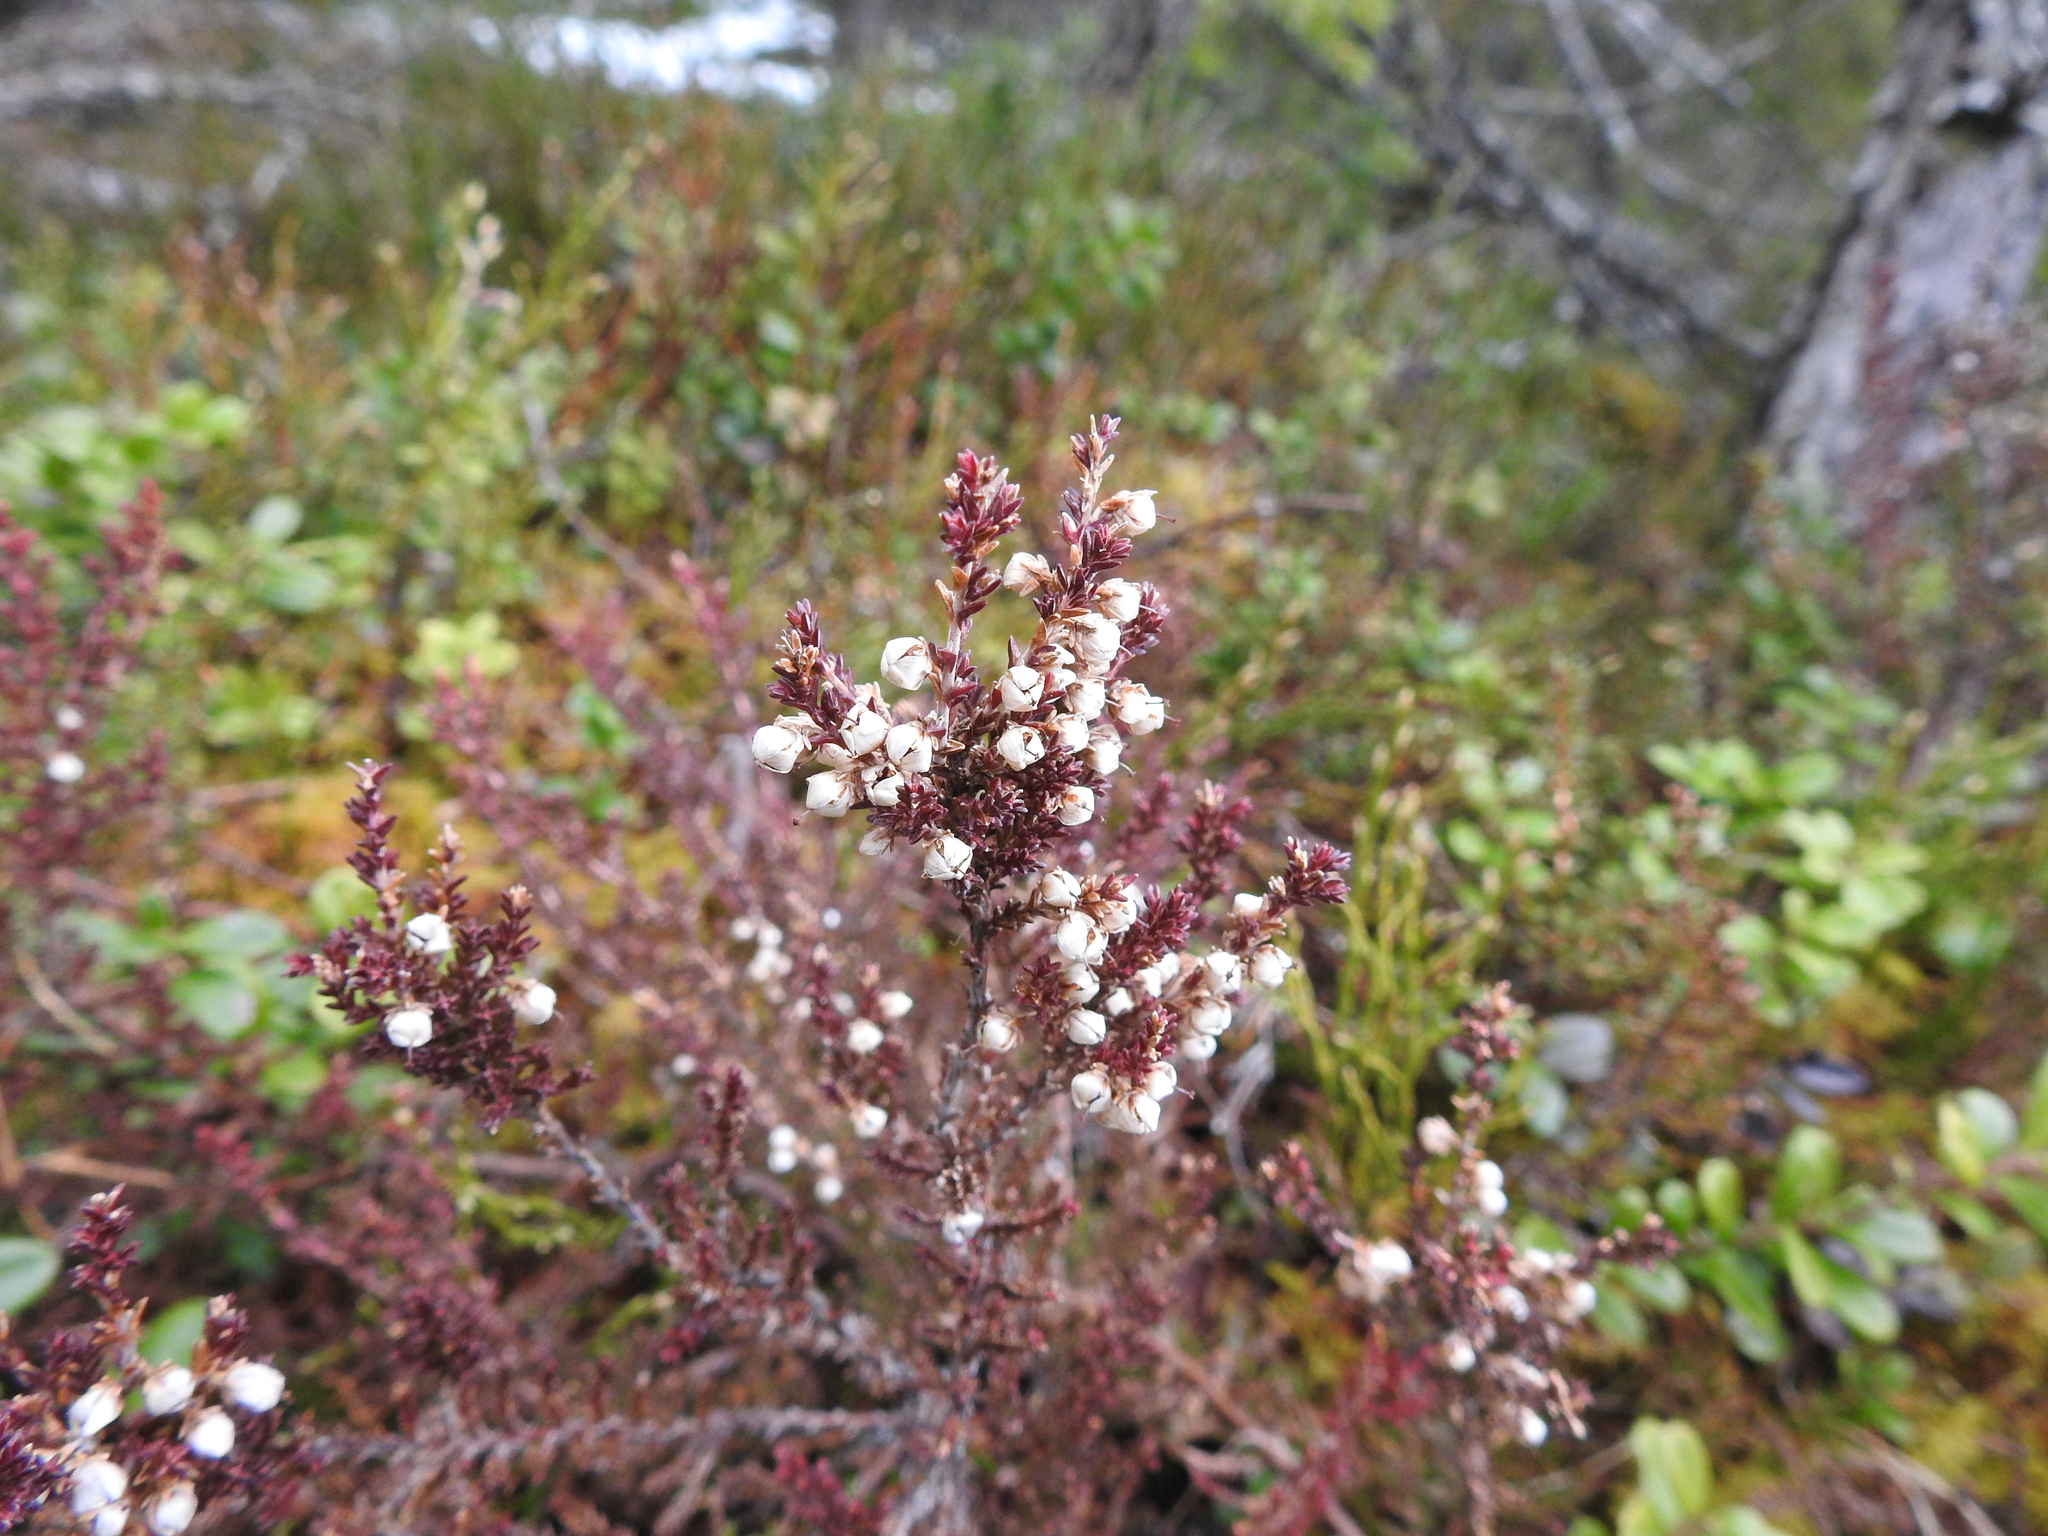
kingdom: Plantae
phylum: Tracheophyta
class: Magnoliopsida
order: Ericales
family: Ericaceae
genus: Calluna
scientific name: Calluna vulgaris
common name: Heather
